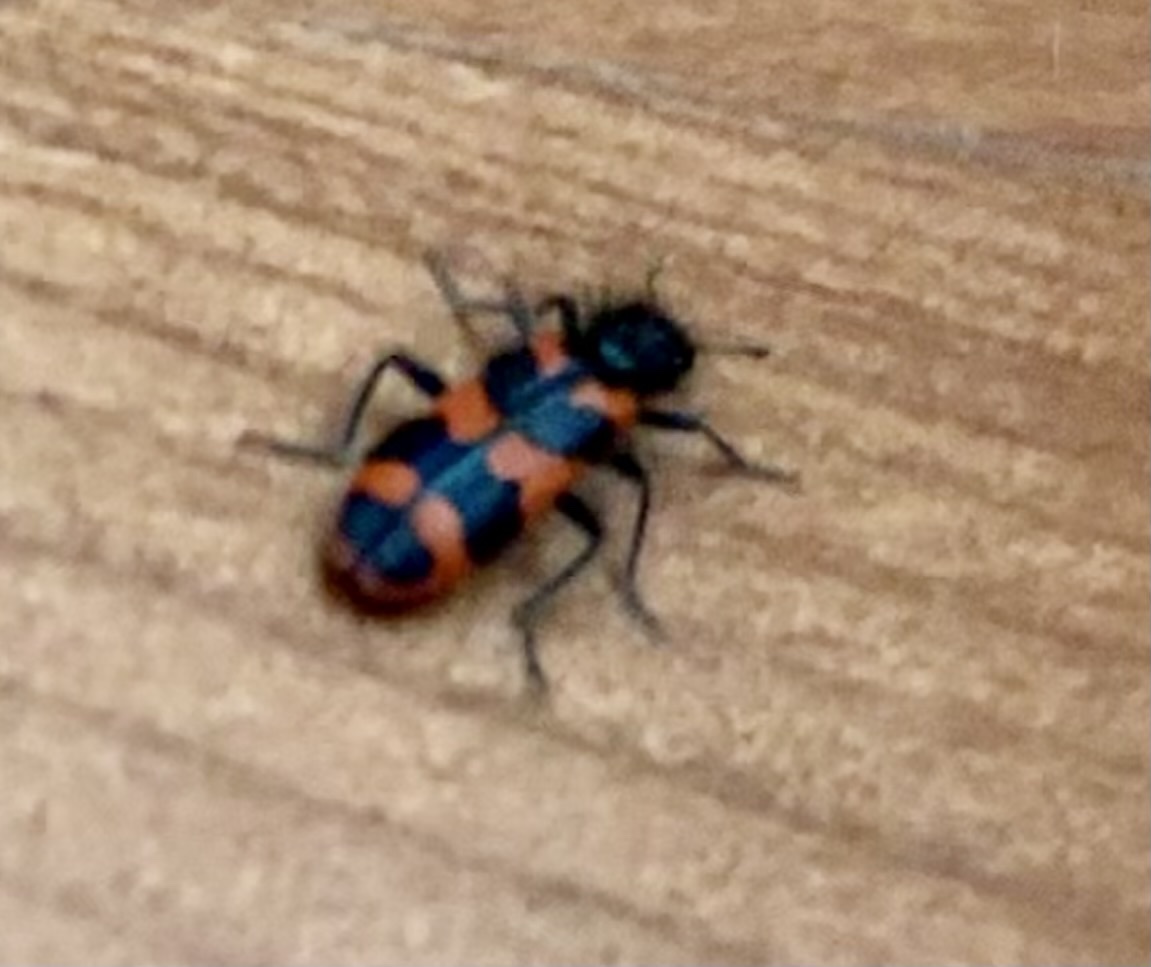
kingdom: Animalia
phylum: Arthropoda
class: Insecta
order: Coleoptera
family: Cleridae
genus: Trichodes
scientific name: Trichodes alvearius
